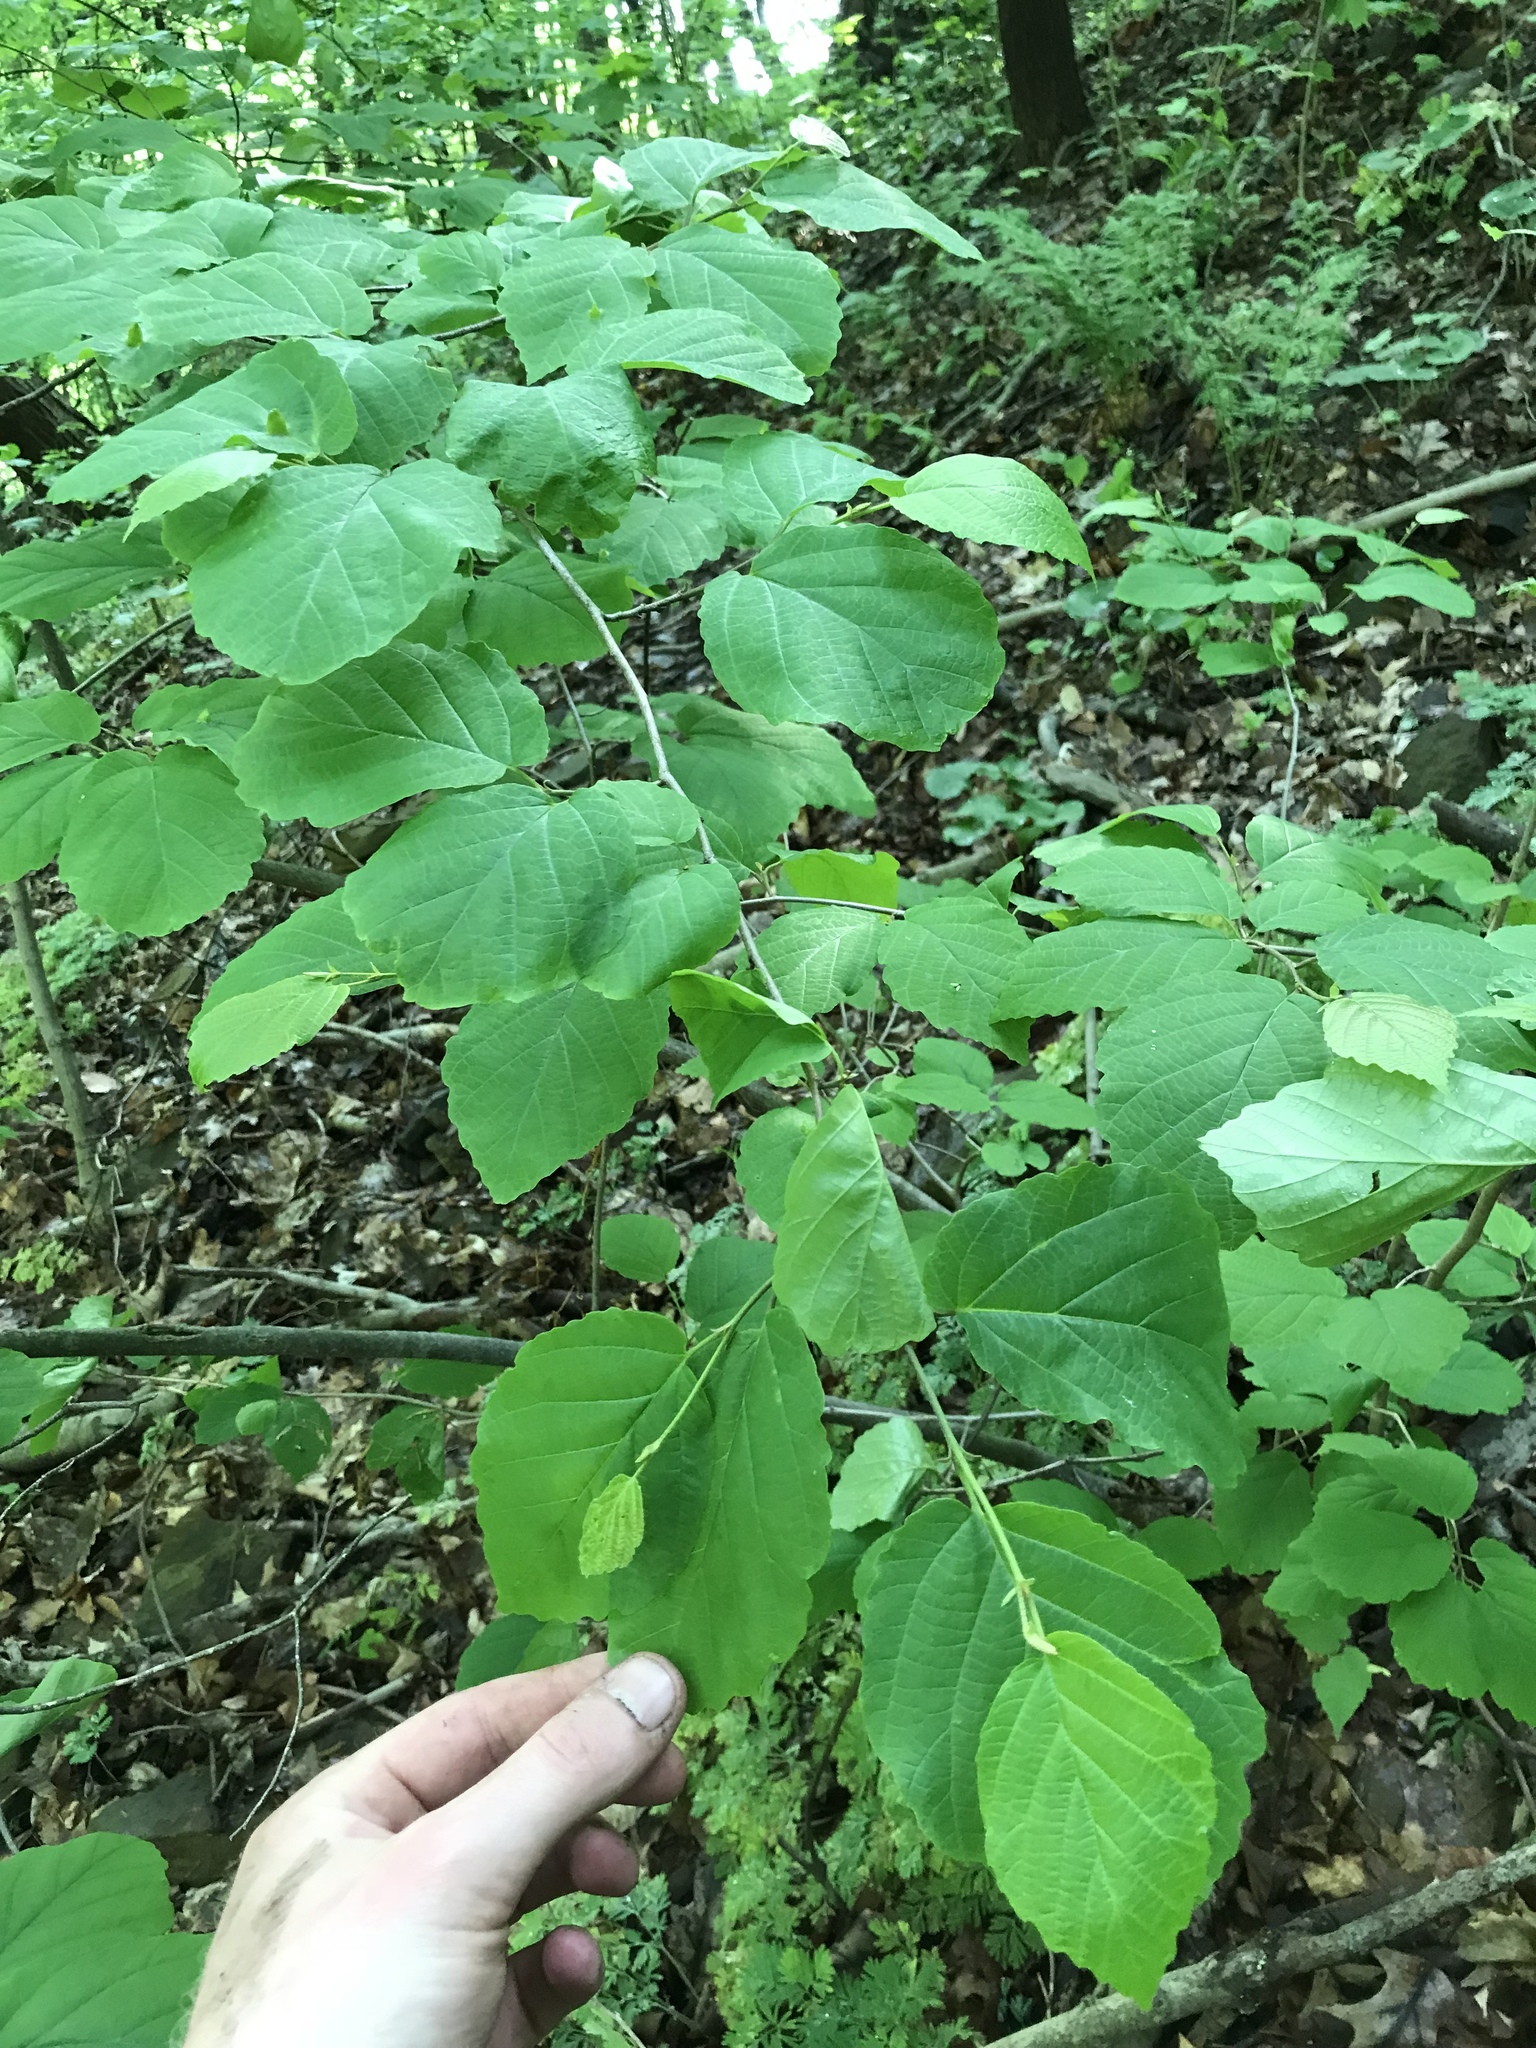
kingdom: Plantae
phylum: Tracheophyta
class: Magnoliopsida
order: Saxifragales
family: Hamamelidaceae
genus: Hamamelis
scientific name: Hamamelis virginiana
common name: Witch-hazel
